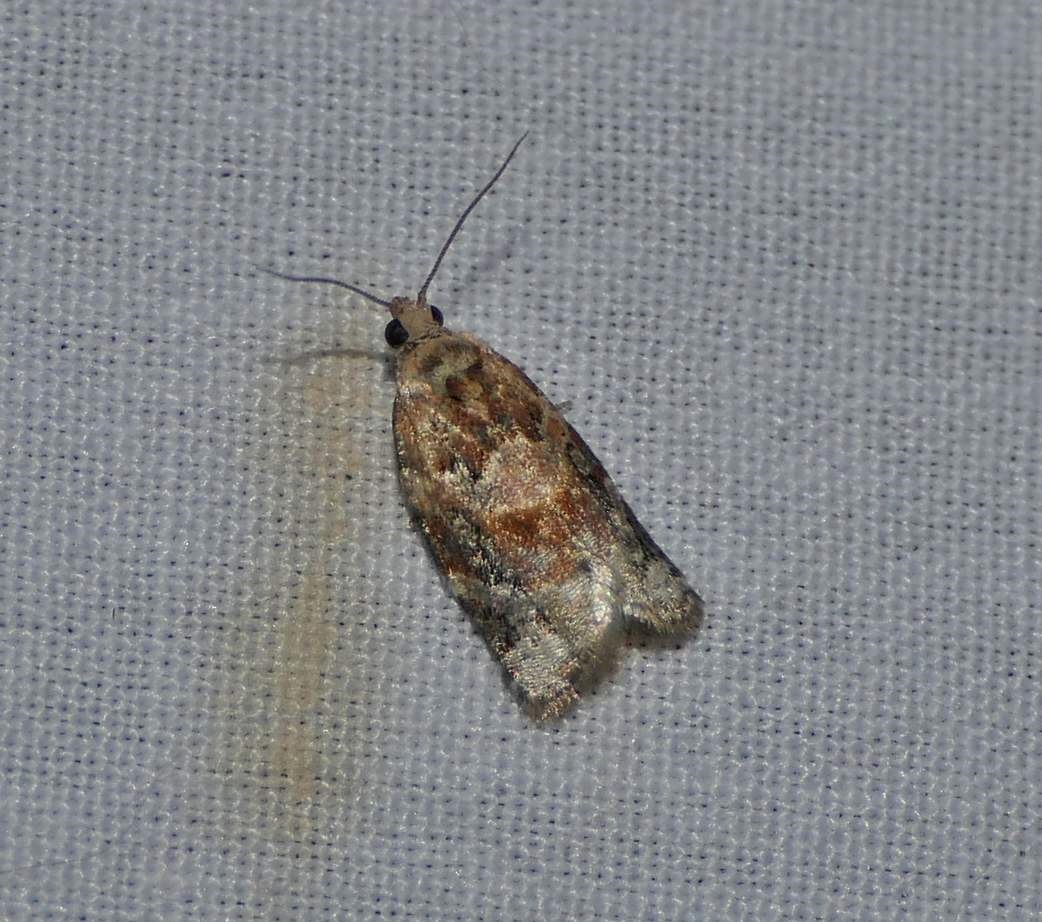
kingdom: Animalia
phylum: Arthropoda
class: Insecta
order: Lepidoptera
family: Tortricidae
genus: Argyrotaenia
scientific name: Argyrotaenia velutinana
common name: Red-banded leafroller moth
